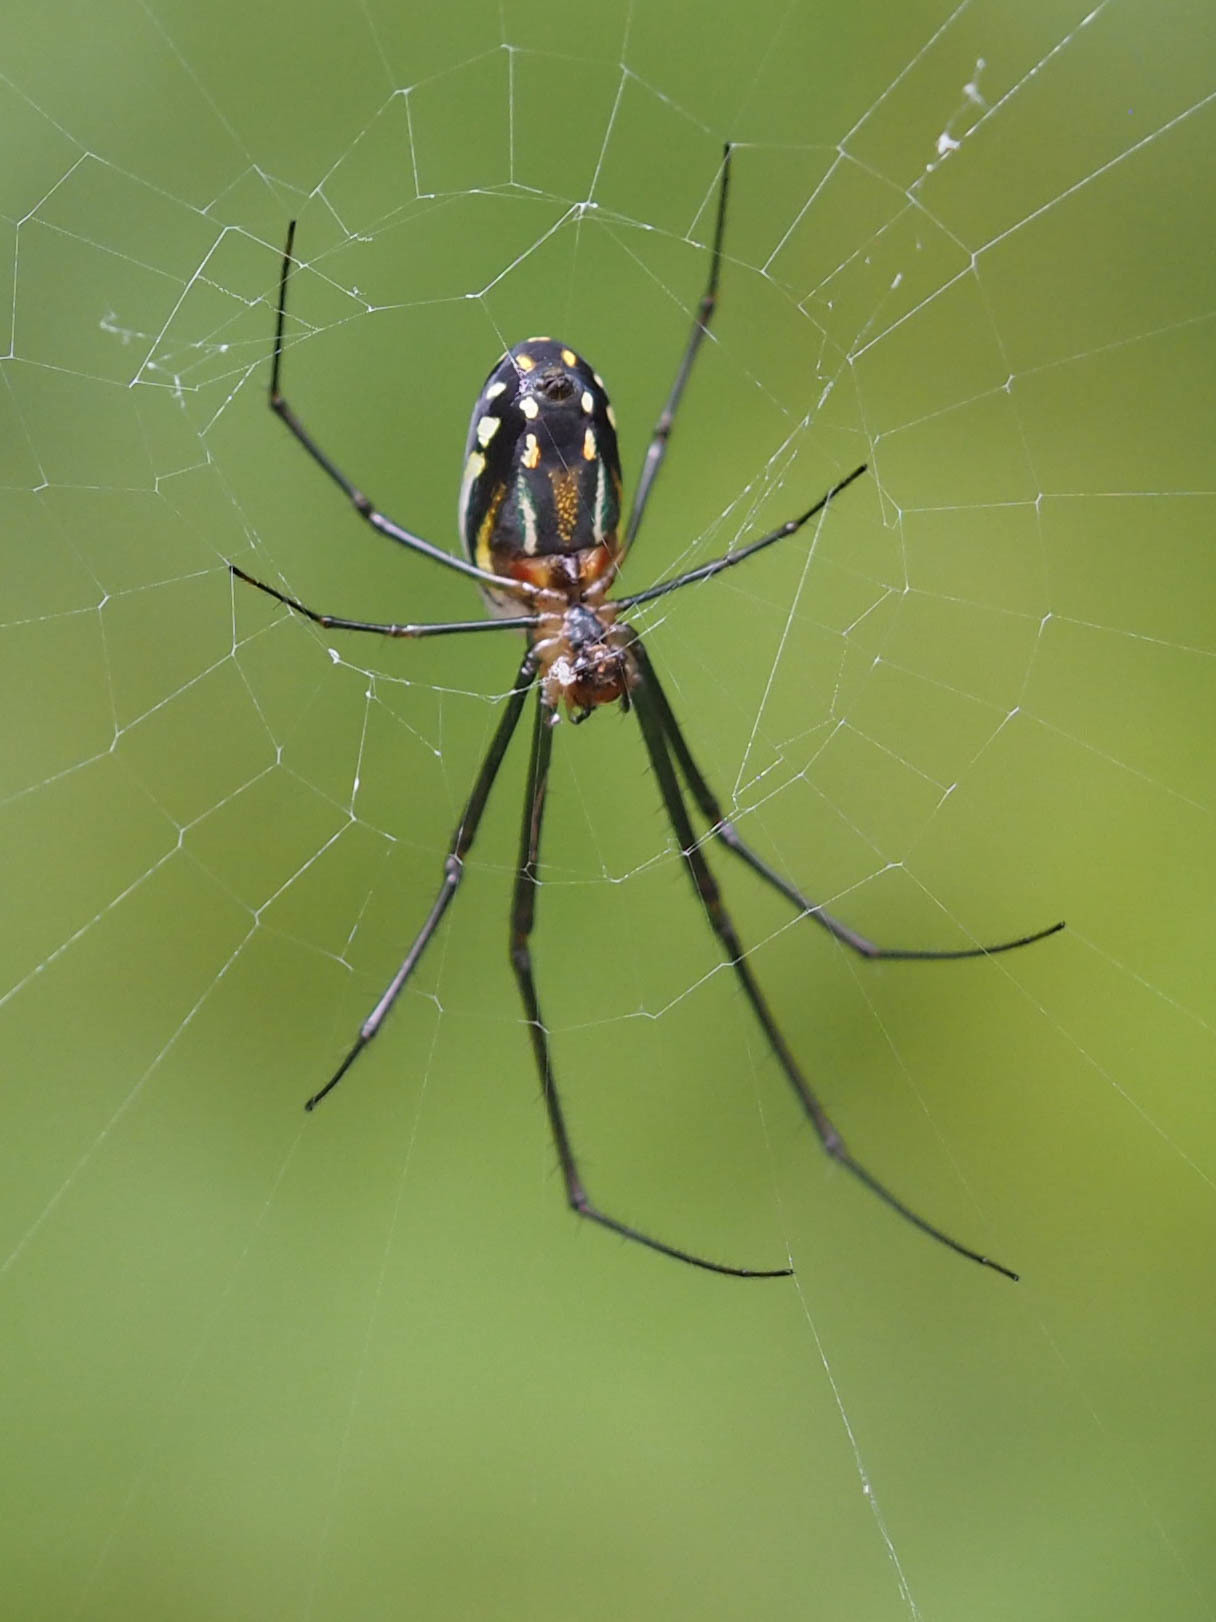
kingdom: Animalia
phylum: Arthropoda
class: Arachnida
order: Araneae
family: Tetragnathidae
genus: Leucauge
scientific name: Leucauge argyra
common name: Longjawed orb weavers
